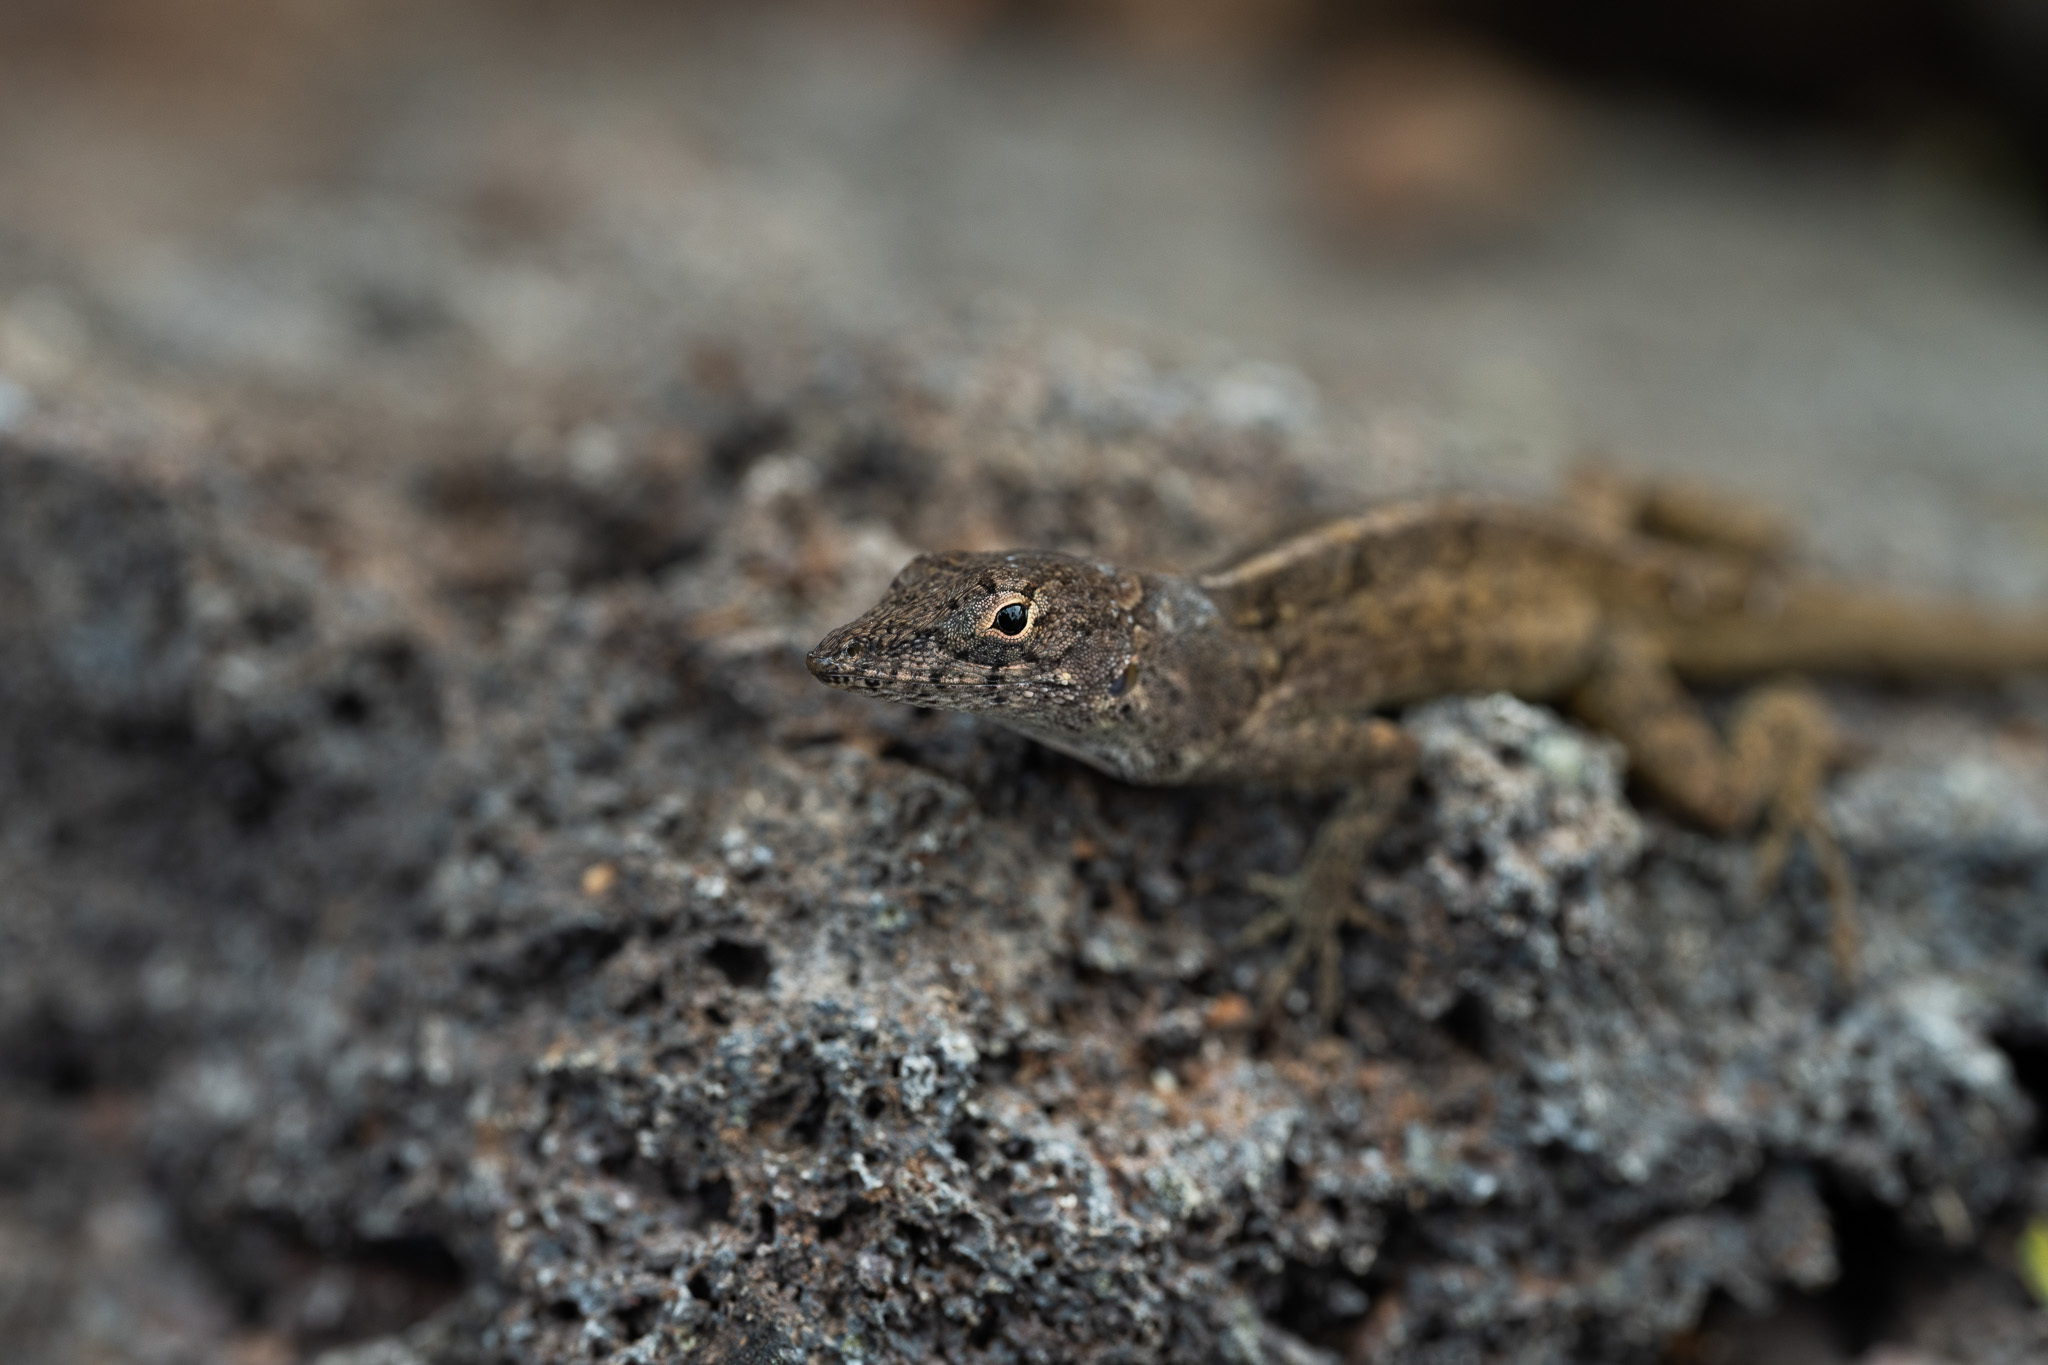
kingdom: Animalia
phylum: Chordata
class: Squamata
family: Dactyloidae
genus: Anolis
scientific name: Anolis sagrei
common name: Brown anole
